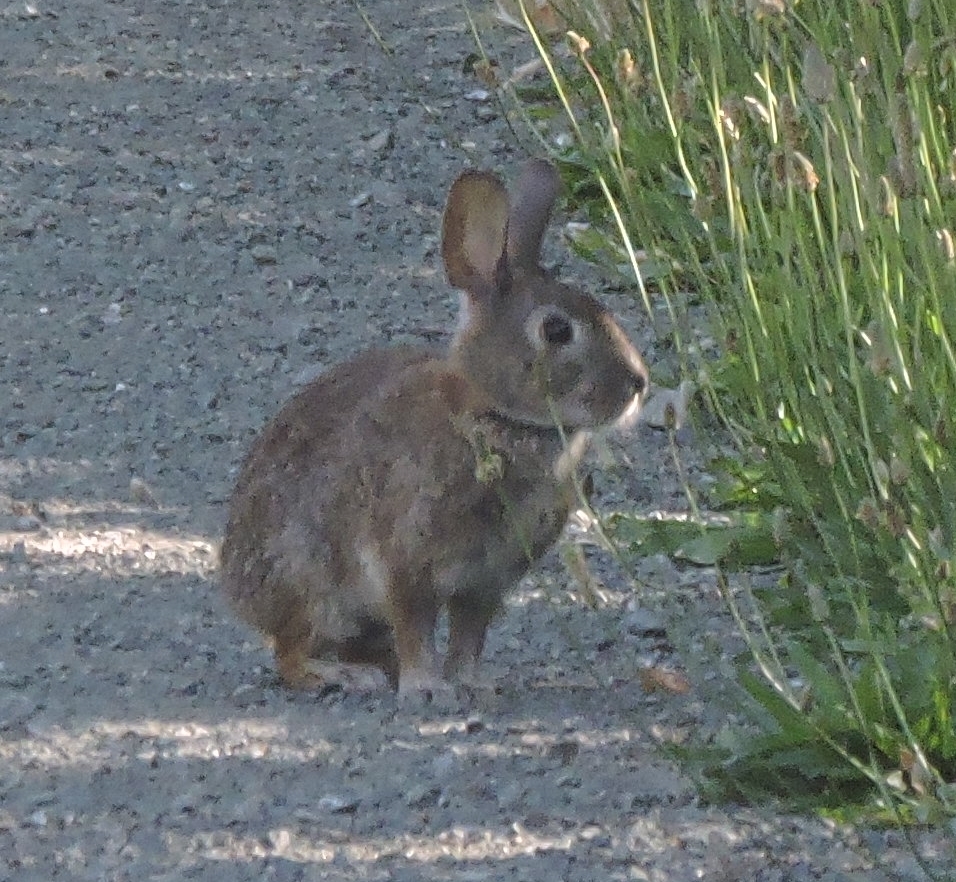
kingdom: Animalia
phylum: Chordata
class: Mammalia
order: Lagomorpha
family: Leporidae
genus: Sylvilagus
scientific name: Sylvilagus bachmani
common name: Brush rabbit
